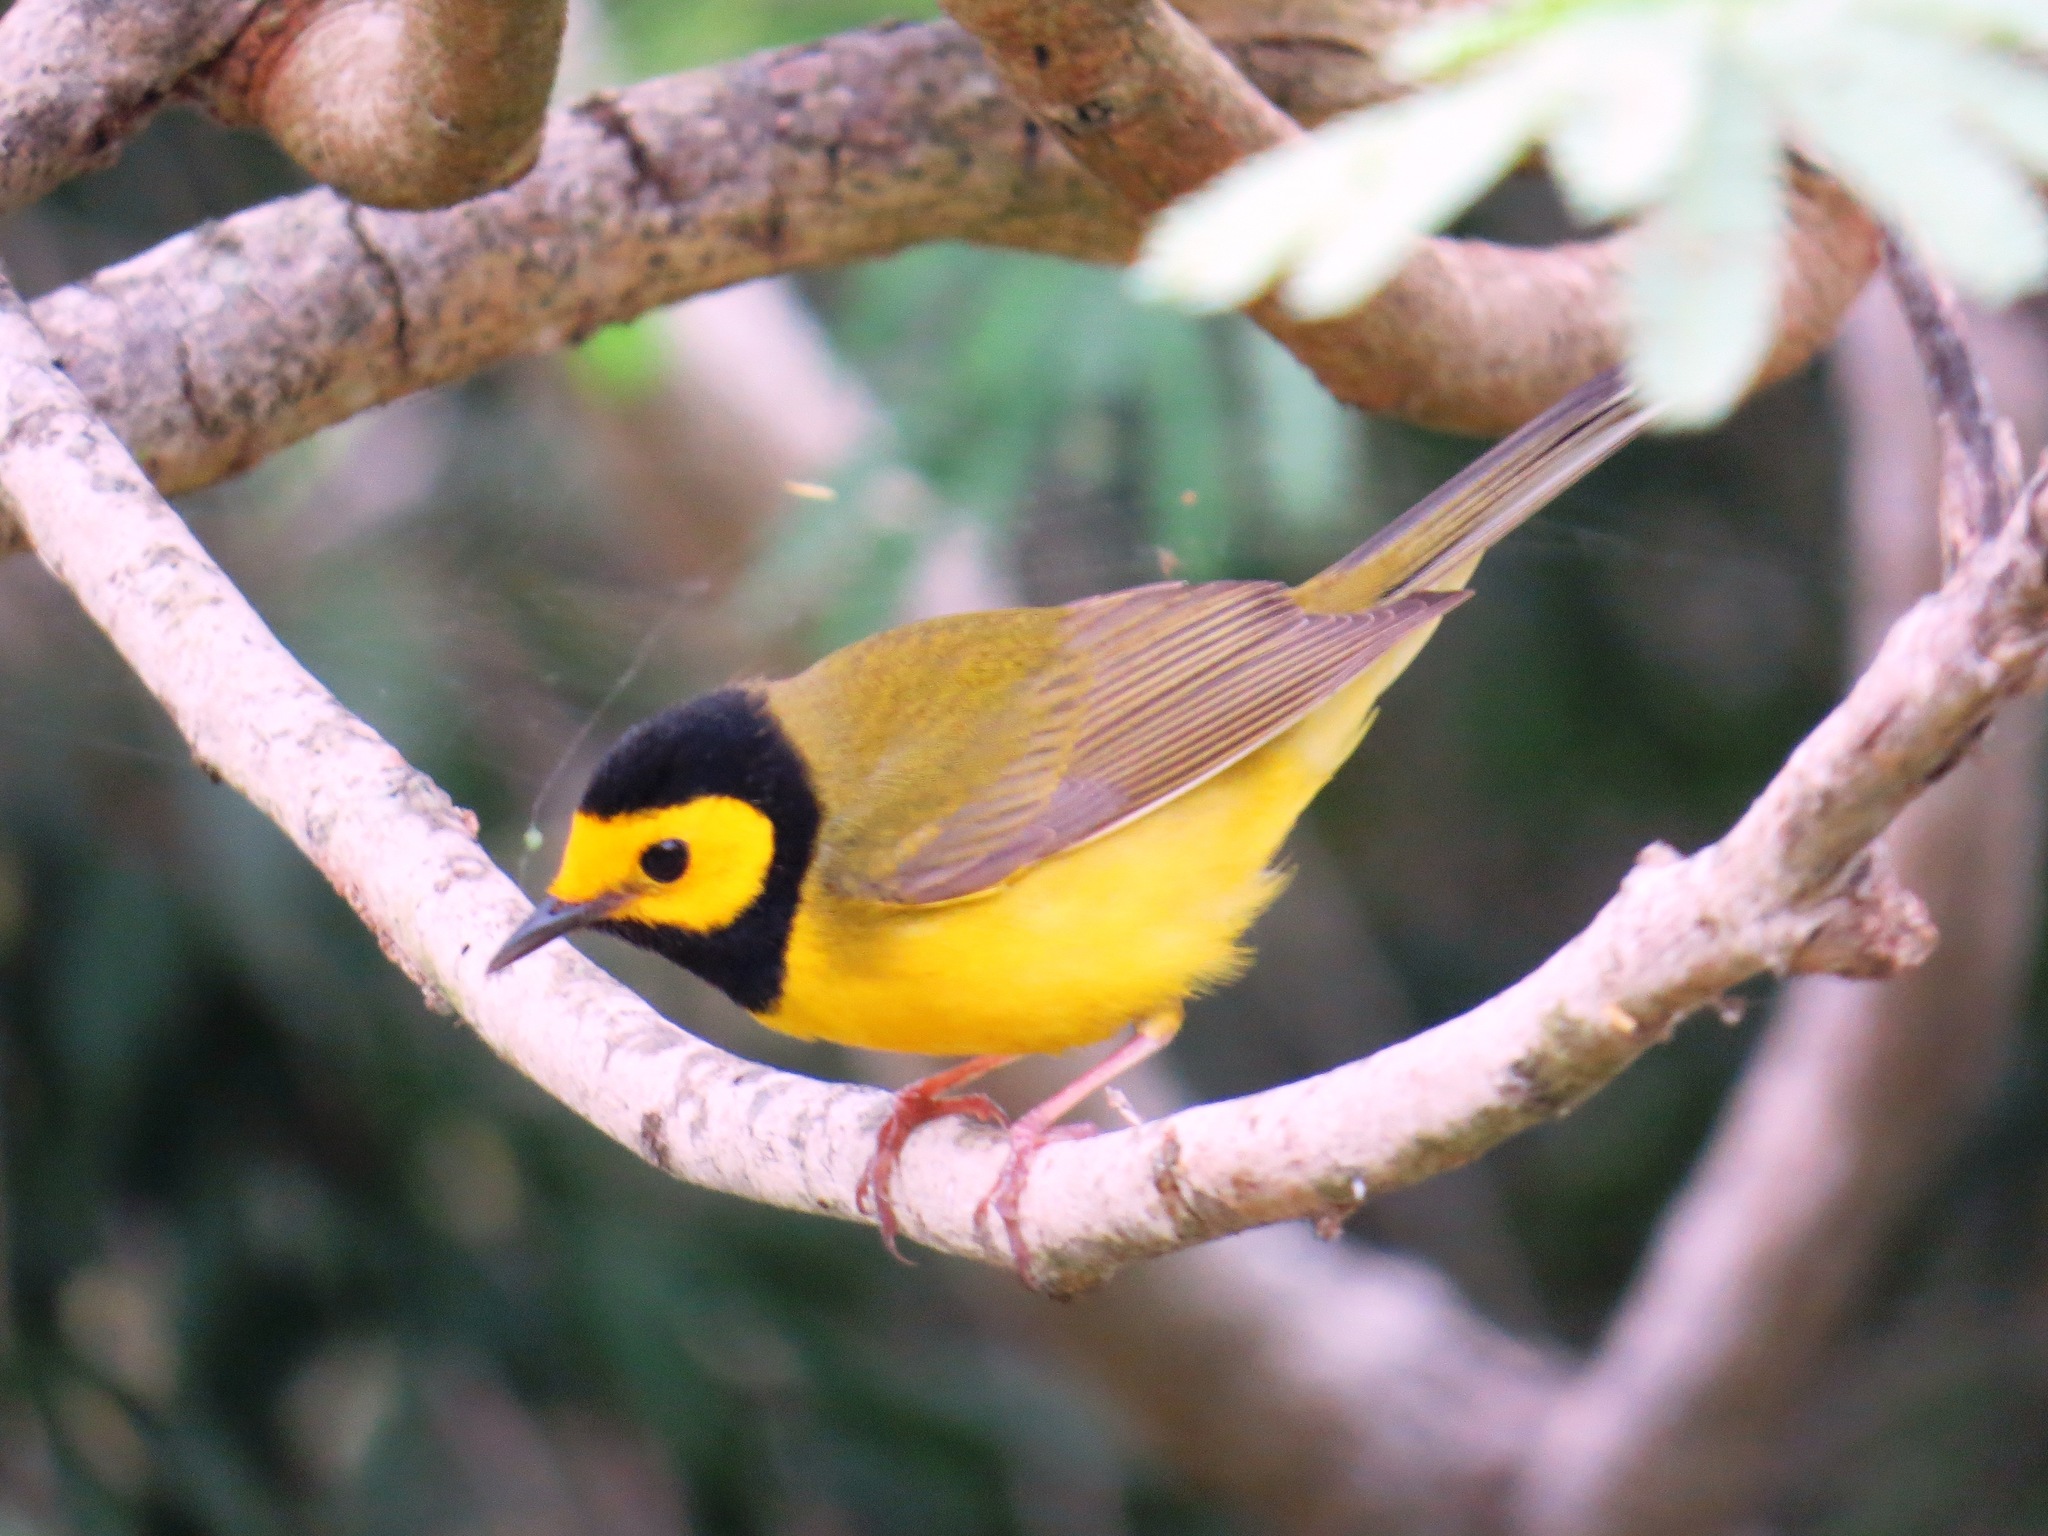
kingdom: Animalia
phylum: Chordata
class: Aves
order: Passeriformes
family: Parulidae
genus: Setophaga
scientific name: Setophaga citrina
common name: Hooded warbler
